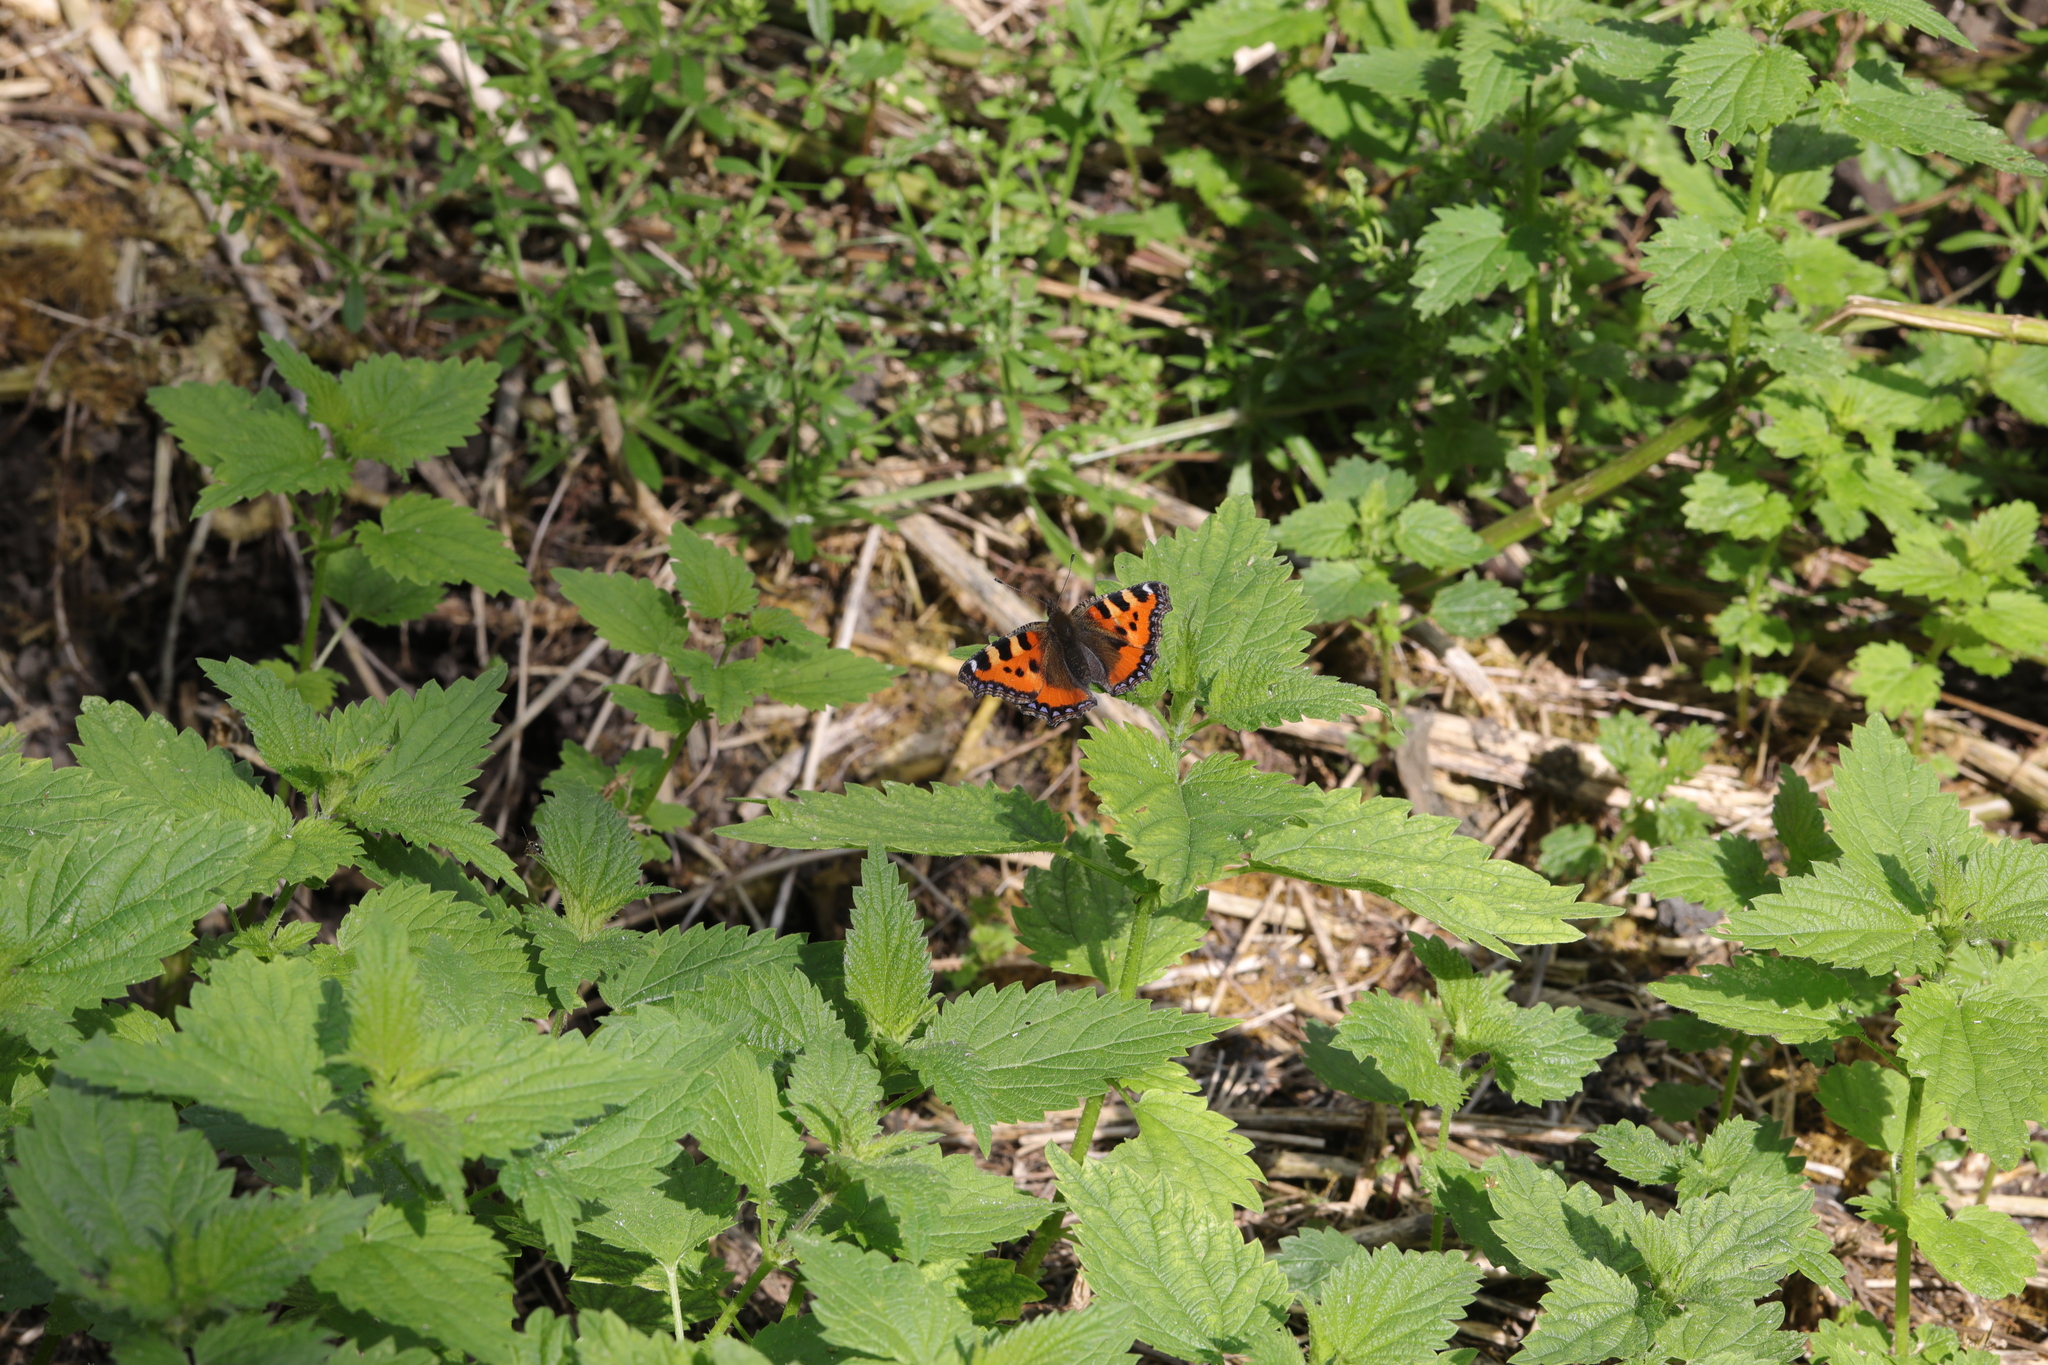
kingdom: Animalia
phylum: Arthropoda
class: Insecta
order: Lepidoptera
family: Nymphalidae
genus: Aglais
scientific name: Aglais urticae
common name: Small tortoiseshell
